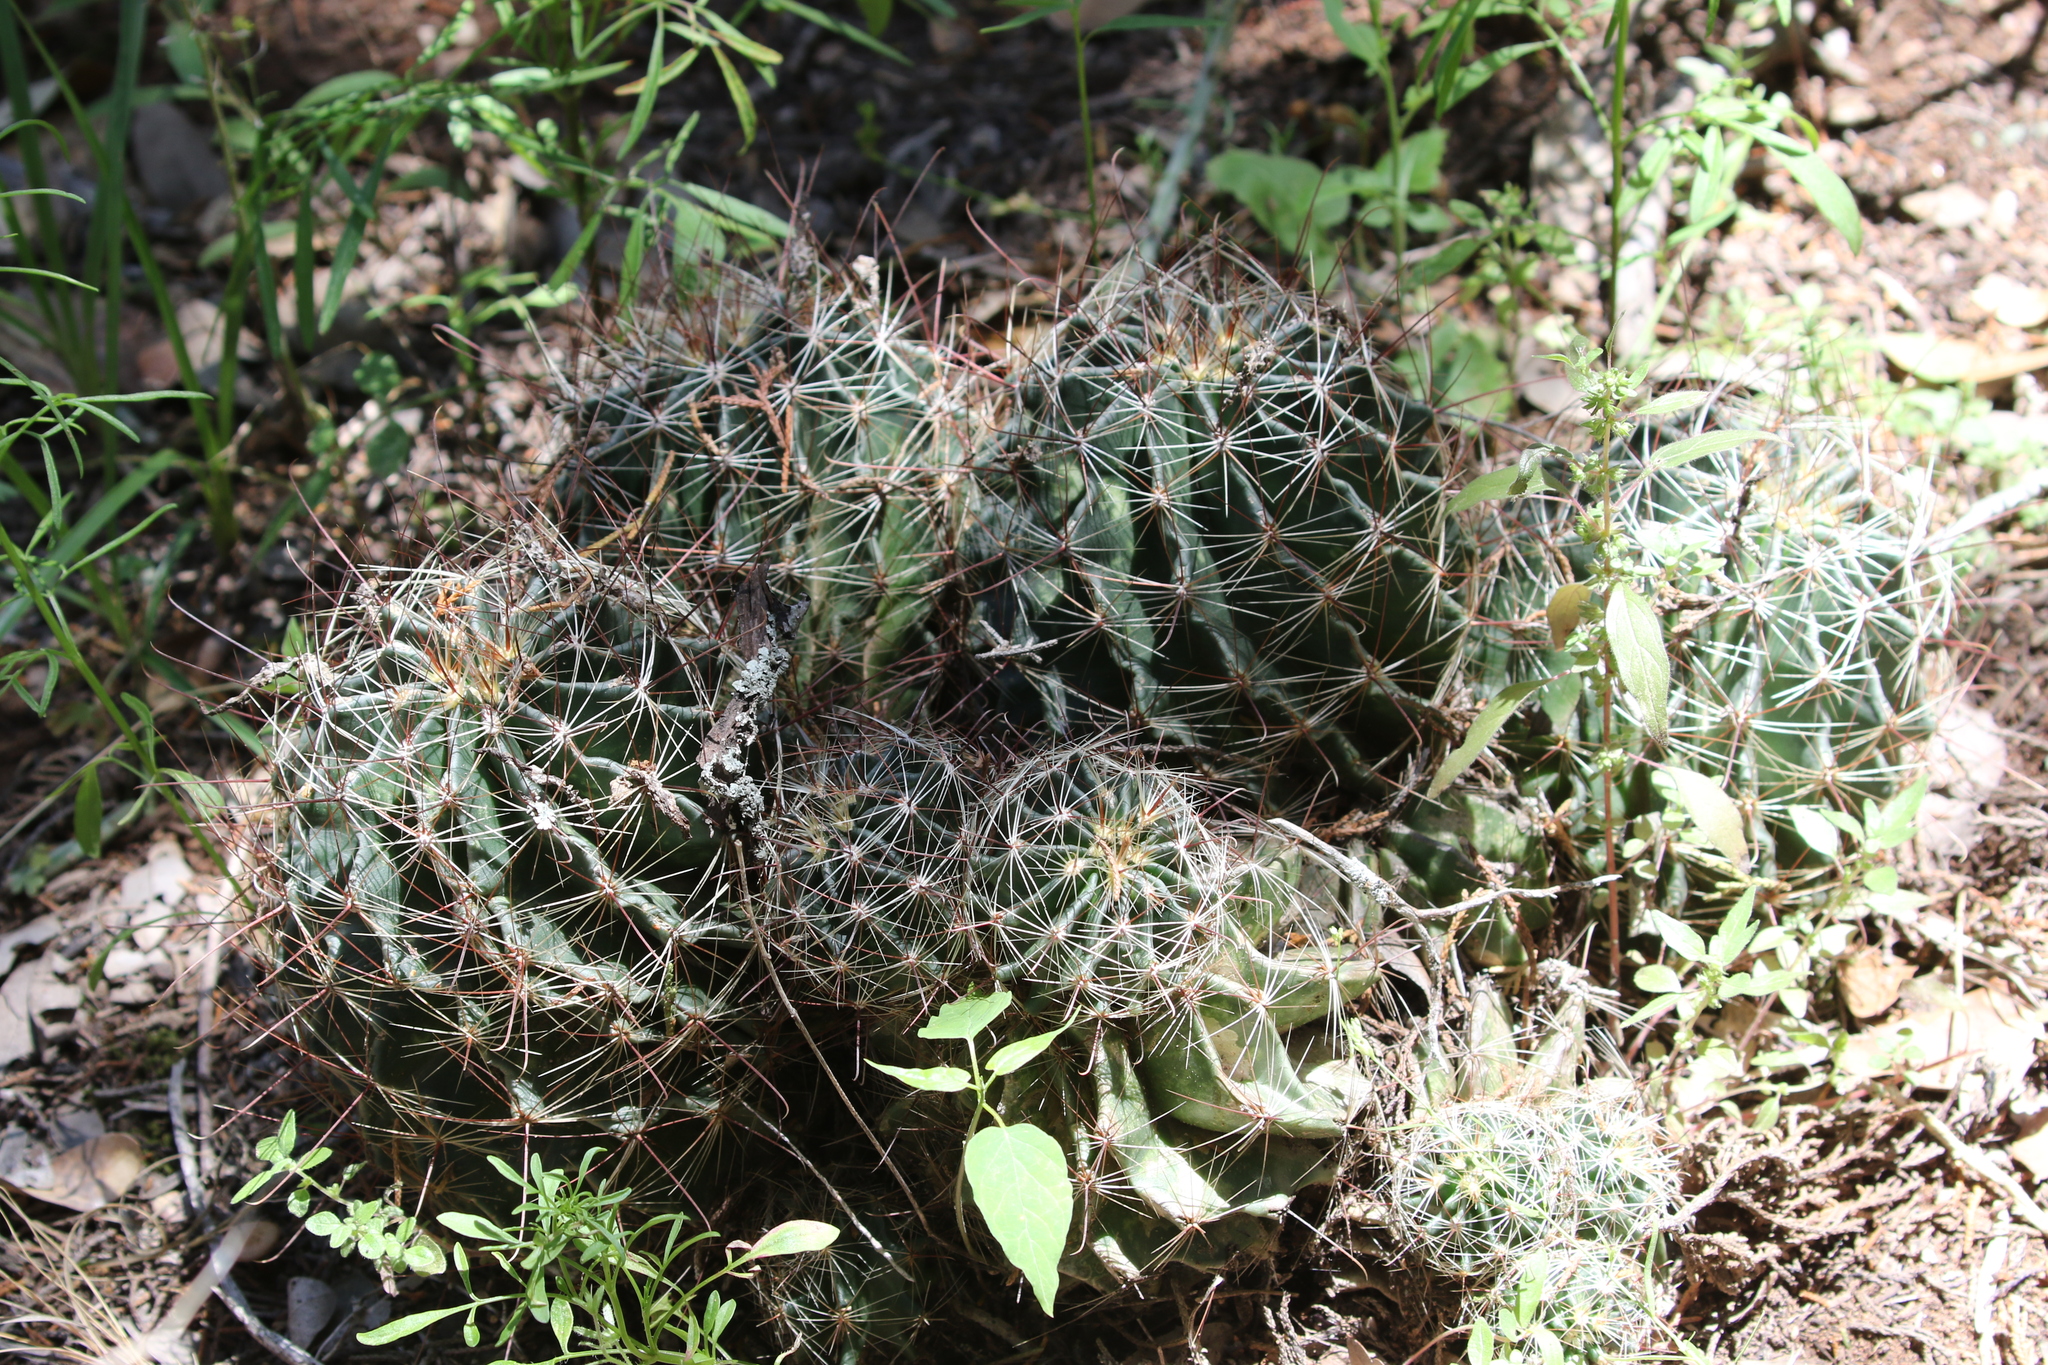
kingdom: Plantae
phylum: Tracheophyta
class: Magnoliopsida
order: Caryophyllales
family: Cactaceae
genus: Thelocactus
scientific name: Thelocactus setispinus
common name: Miniature barrel cactus
